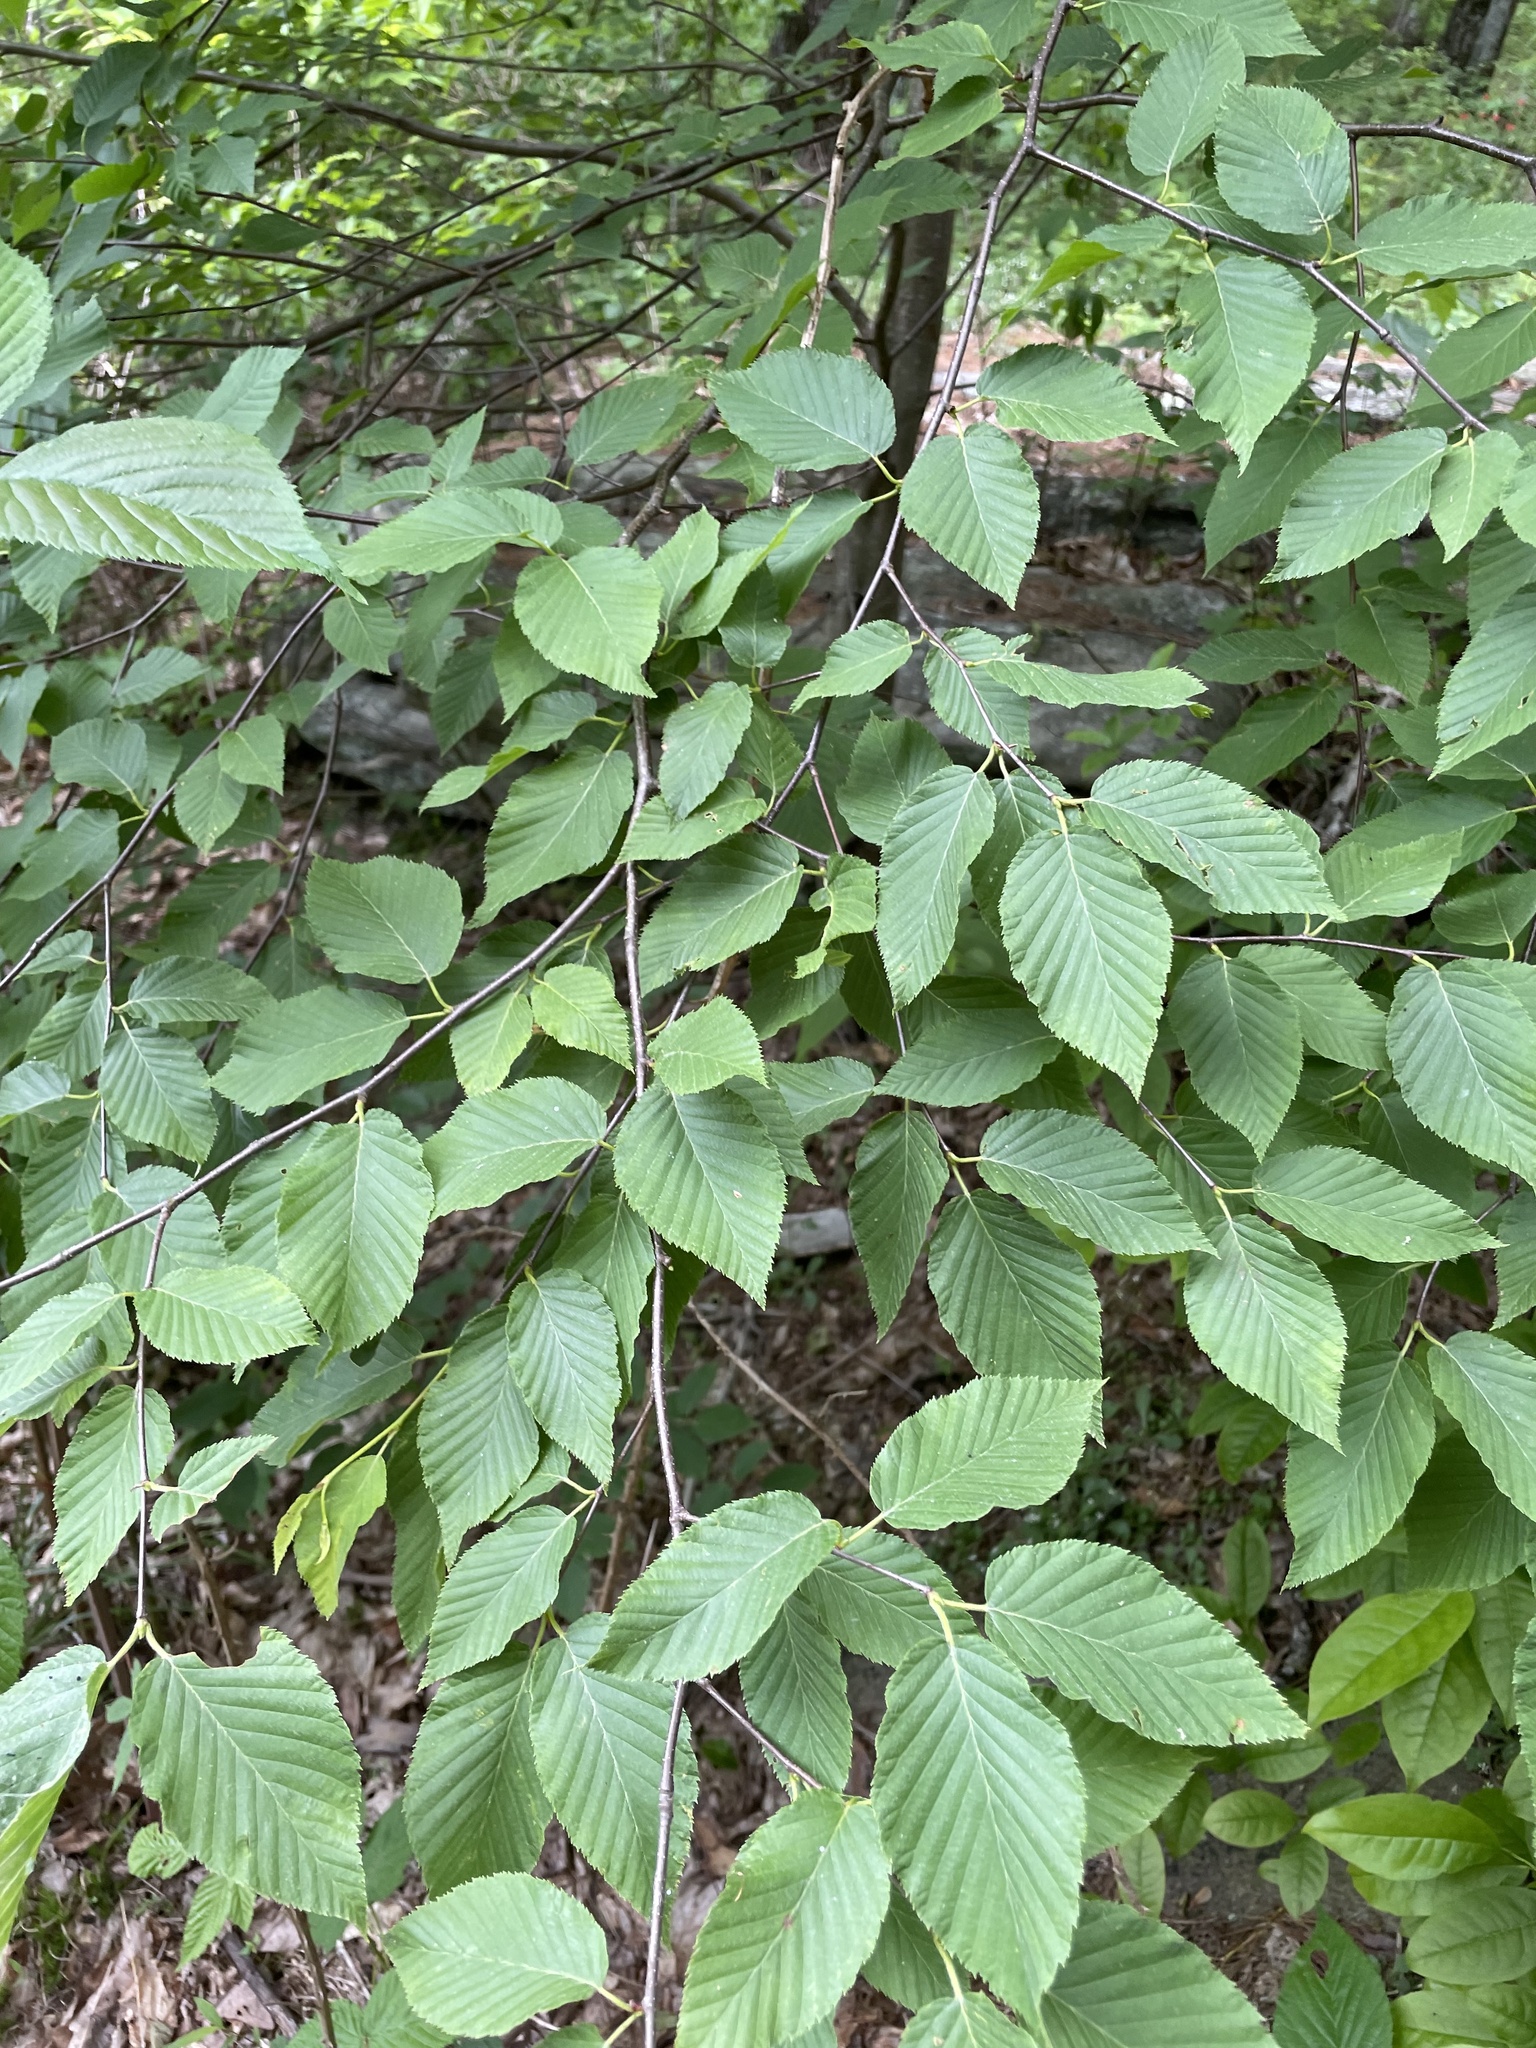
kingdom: Plantae
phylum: Tracheophyta
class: Magnoliopsida
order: Fagales
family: Betulaceae
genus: Betula
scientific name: Betula alleghaniensis
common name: Yellow birch
